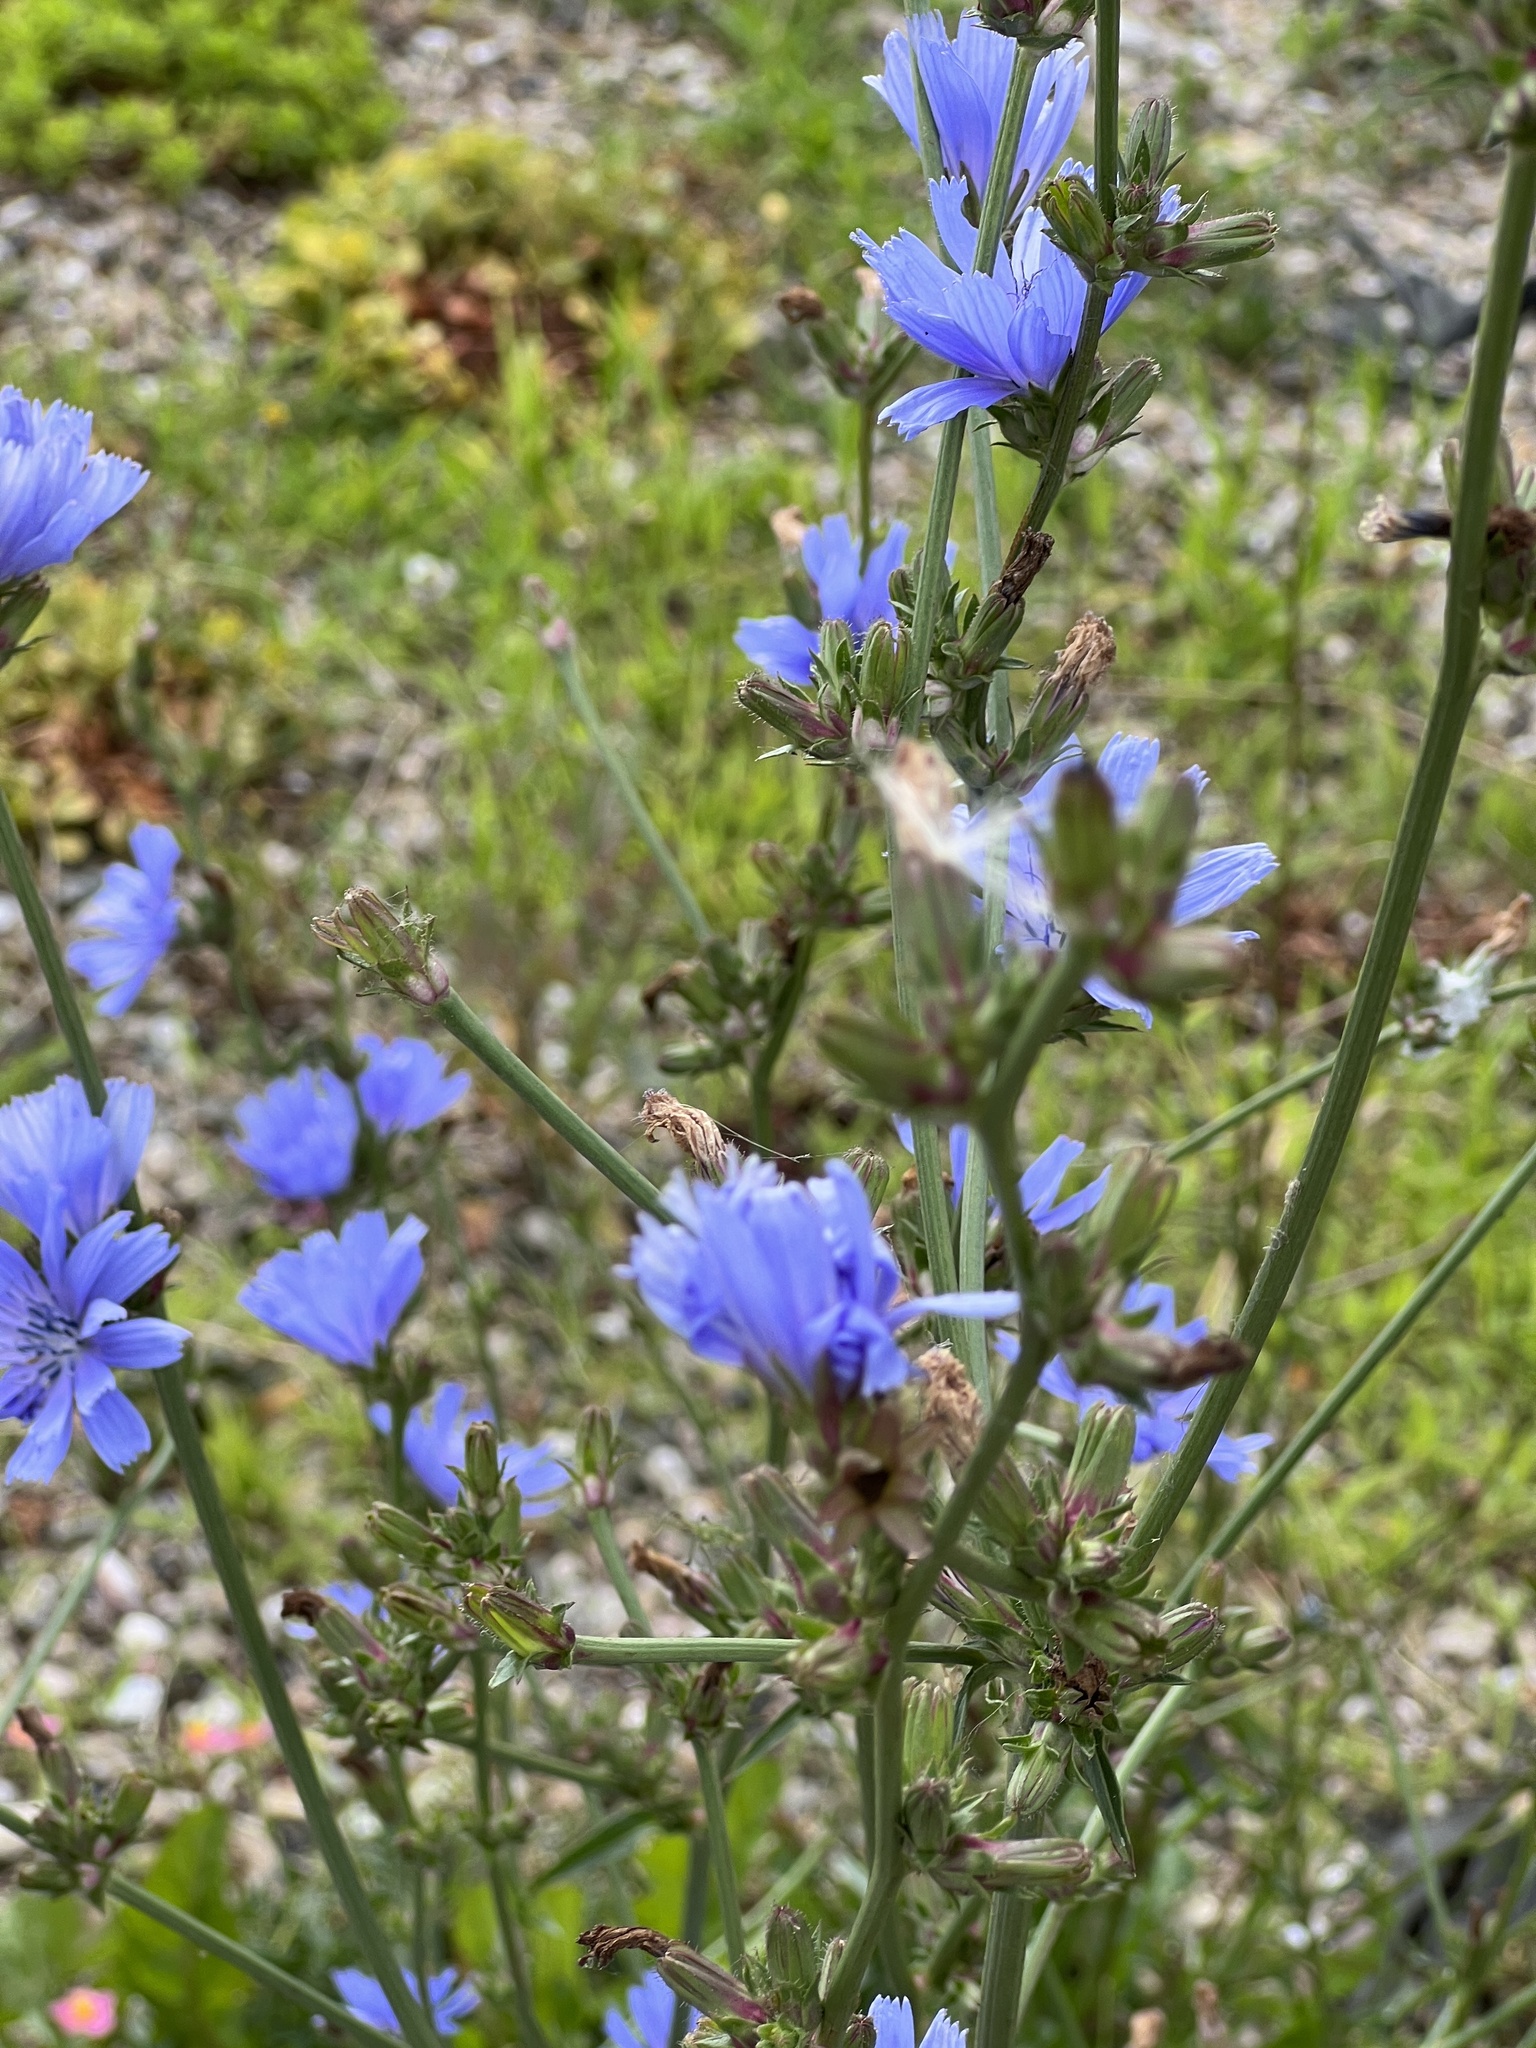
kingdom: Plantae
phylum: Tracheophyta
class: Magnoliopsida
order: Asterales
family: Asteraceae
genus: Cichorium
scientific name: Cichorium intybus
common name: Chicory
